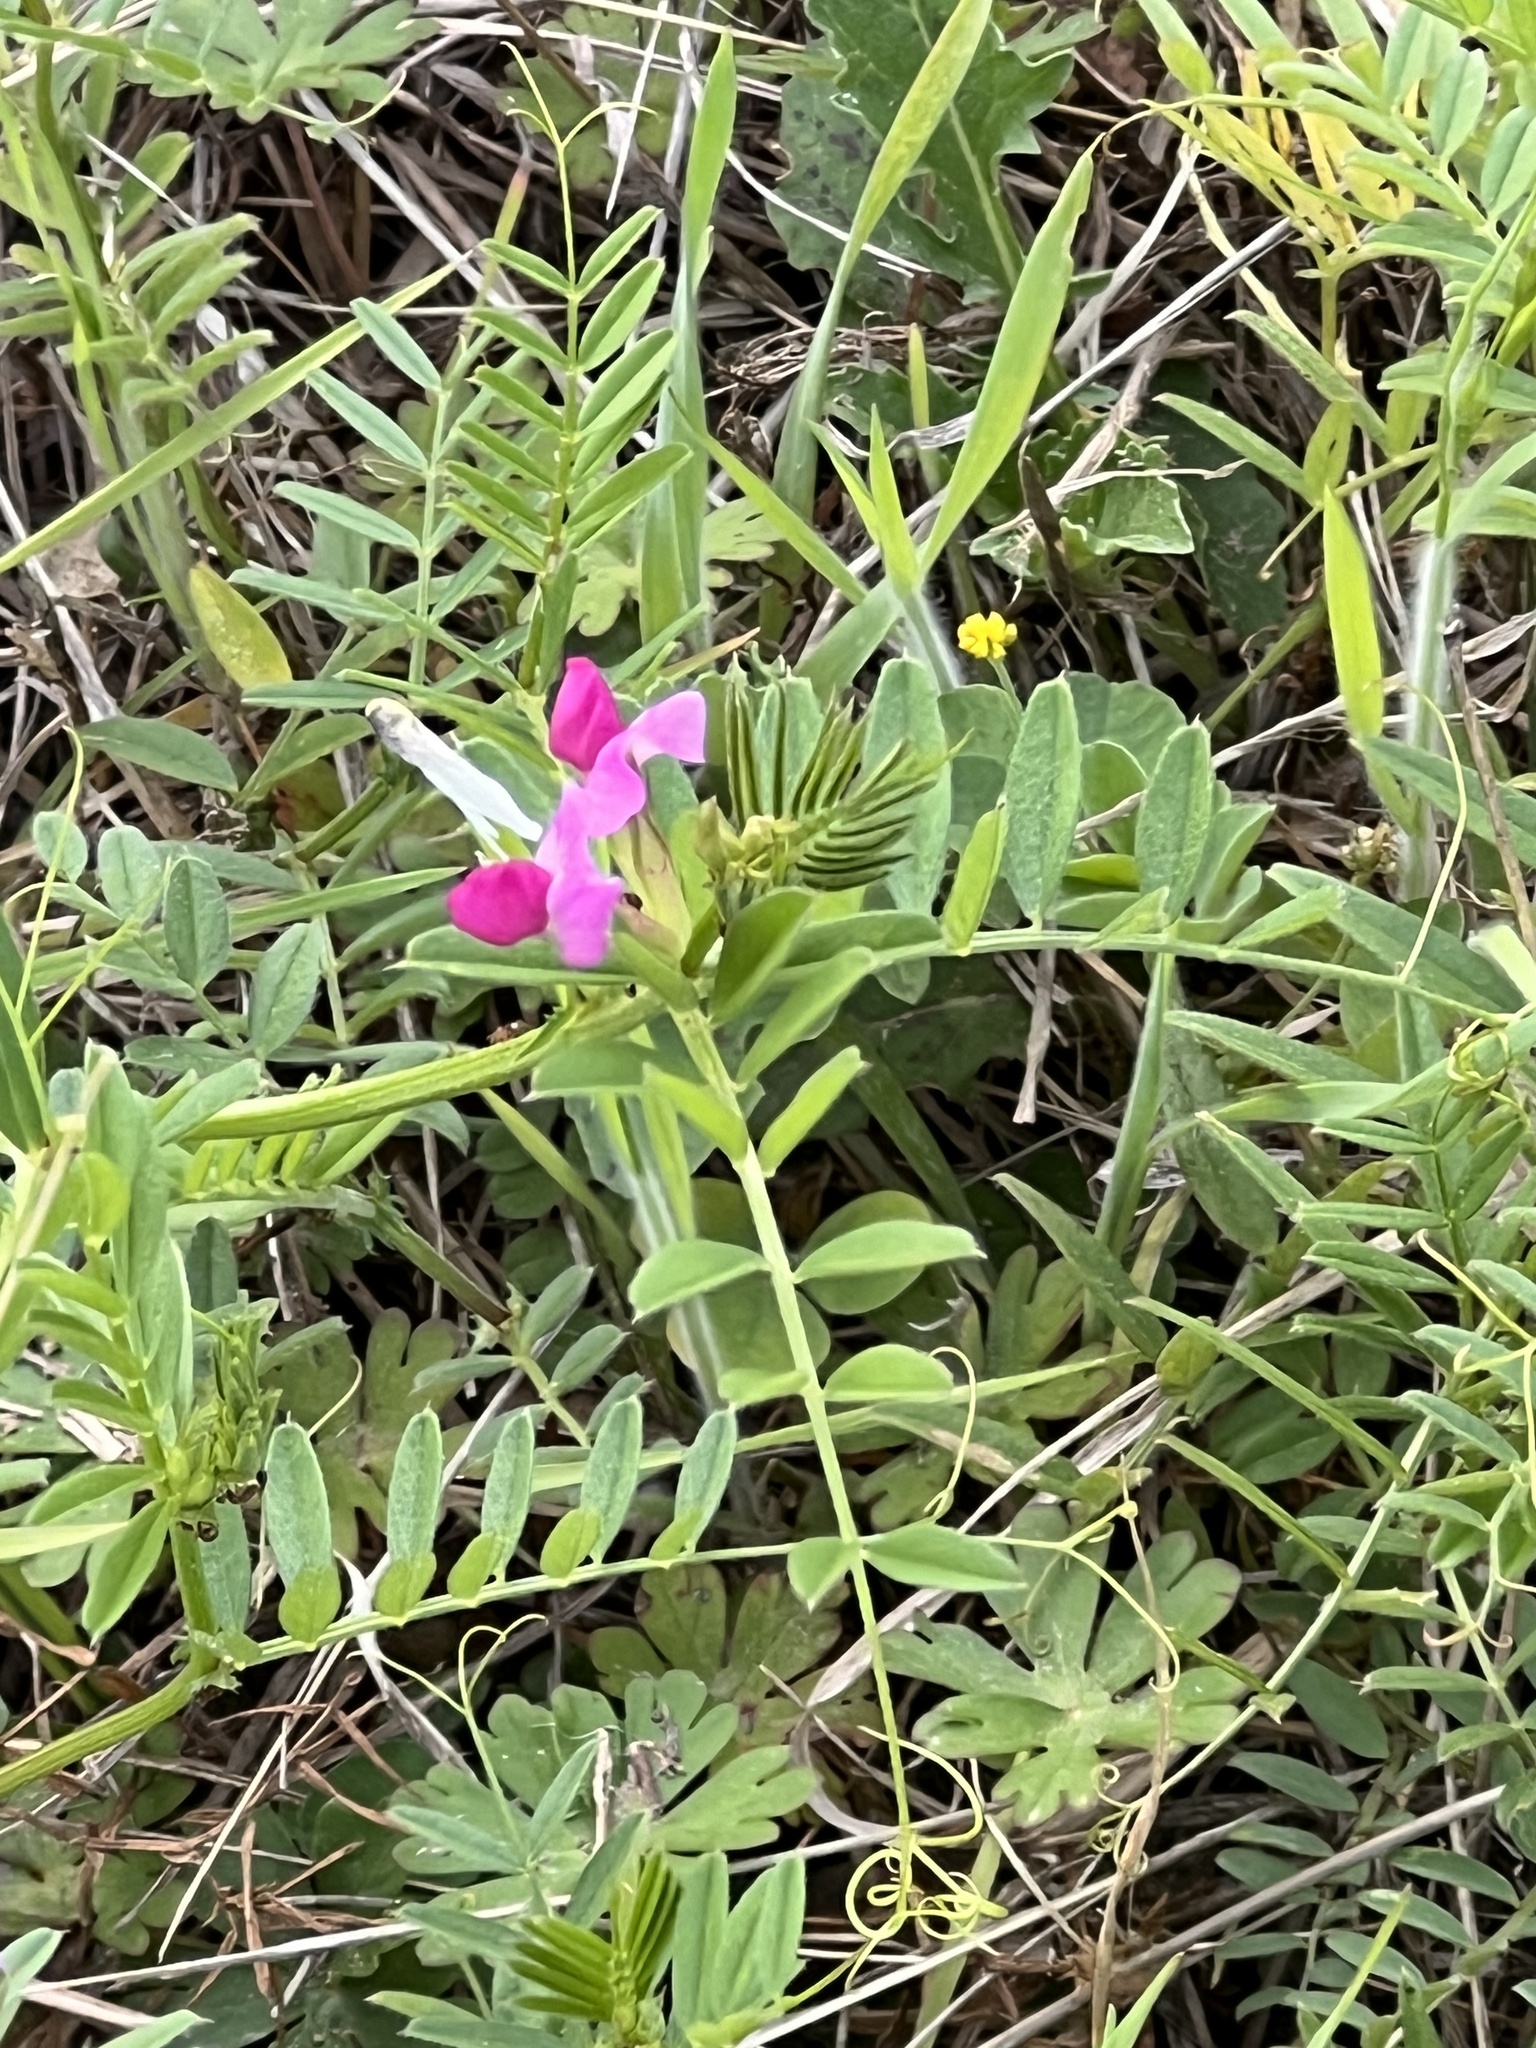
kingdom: Plantae
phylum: Tracheophyta
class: Magnoliopsida
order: Fabales
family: Fabaceae
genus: Vicia
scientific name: Vicia sativa
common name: Garden vetch
